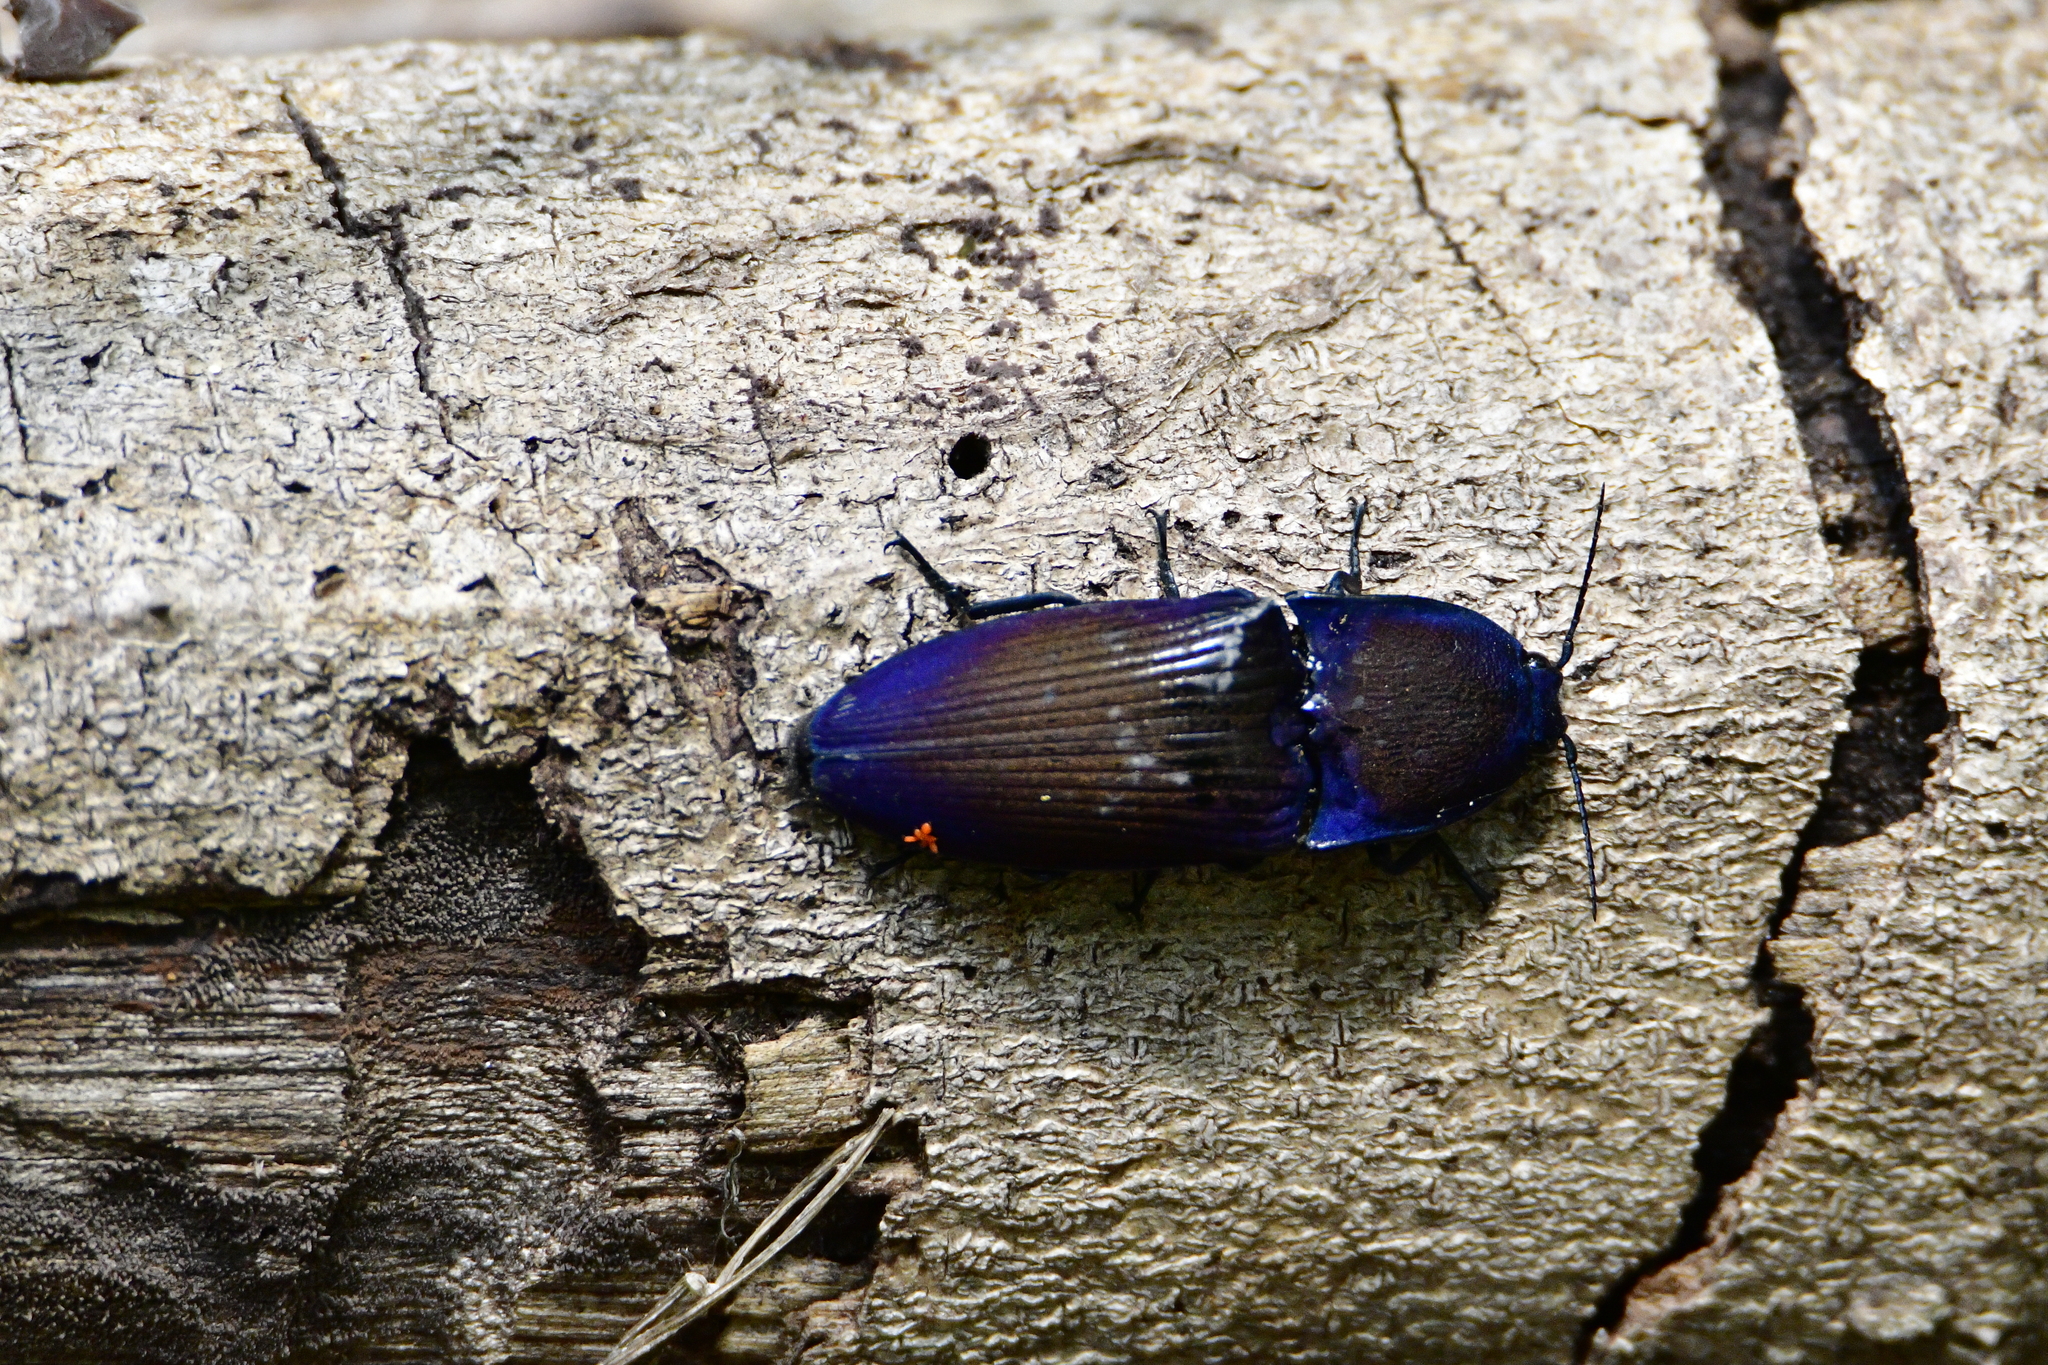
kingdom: Animalia
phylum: Arthropoda
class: Insecta
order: Coleoptera
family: Elateridae
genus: Chalcolepidius
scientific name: Chalcolepidius lacordairei
